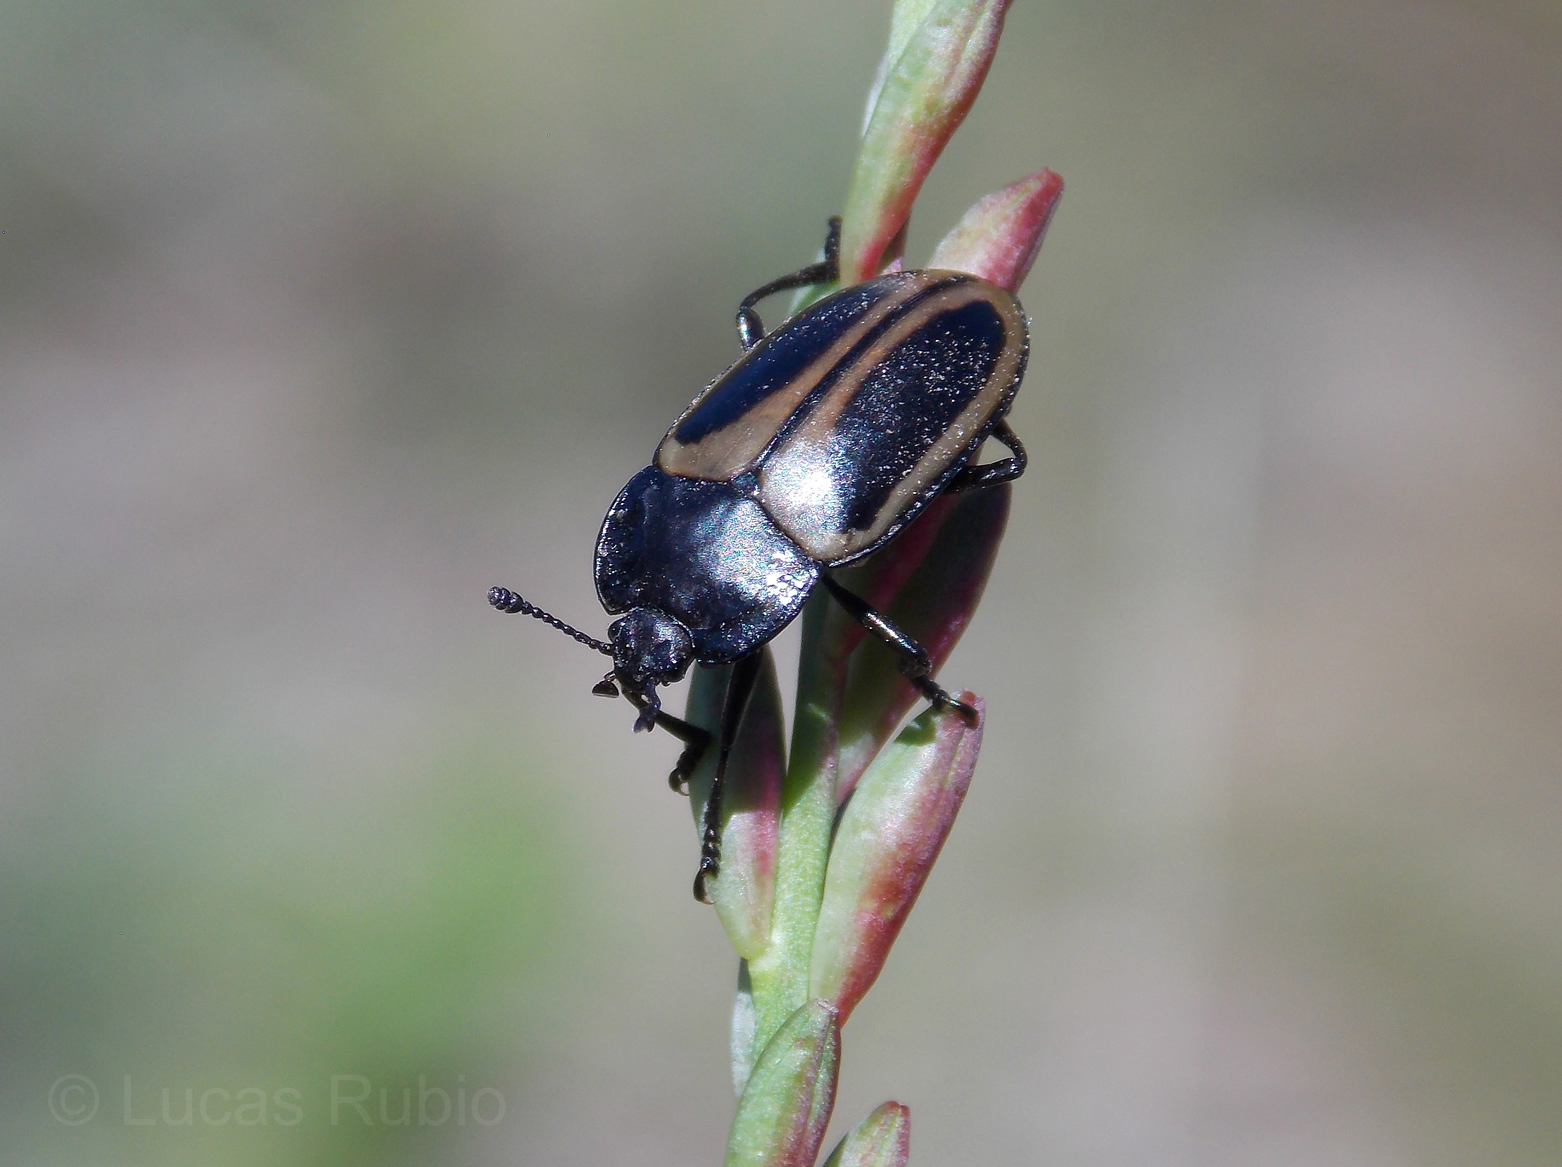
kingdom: Animalia
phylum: Arthropoda
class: Insecta
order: Coleoptera
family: Erotylidae
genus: Iphiclus
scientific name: Iphiclus
